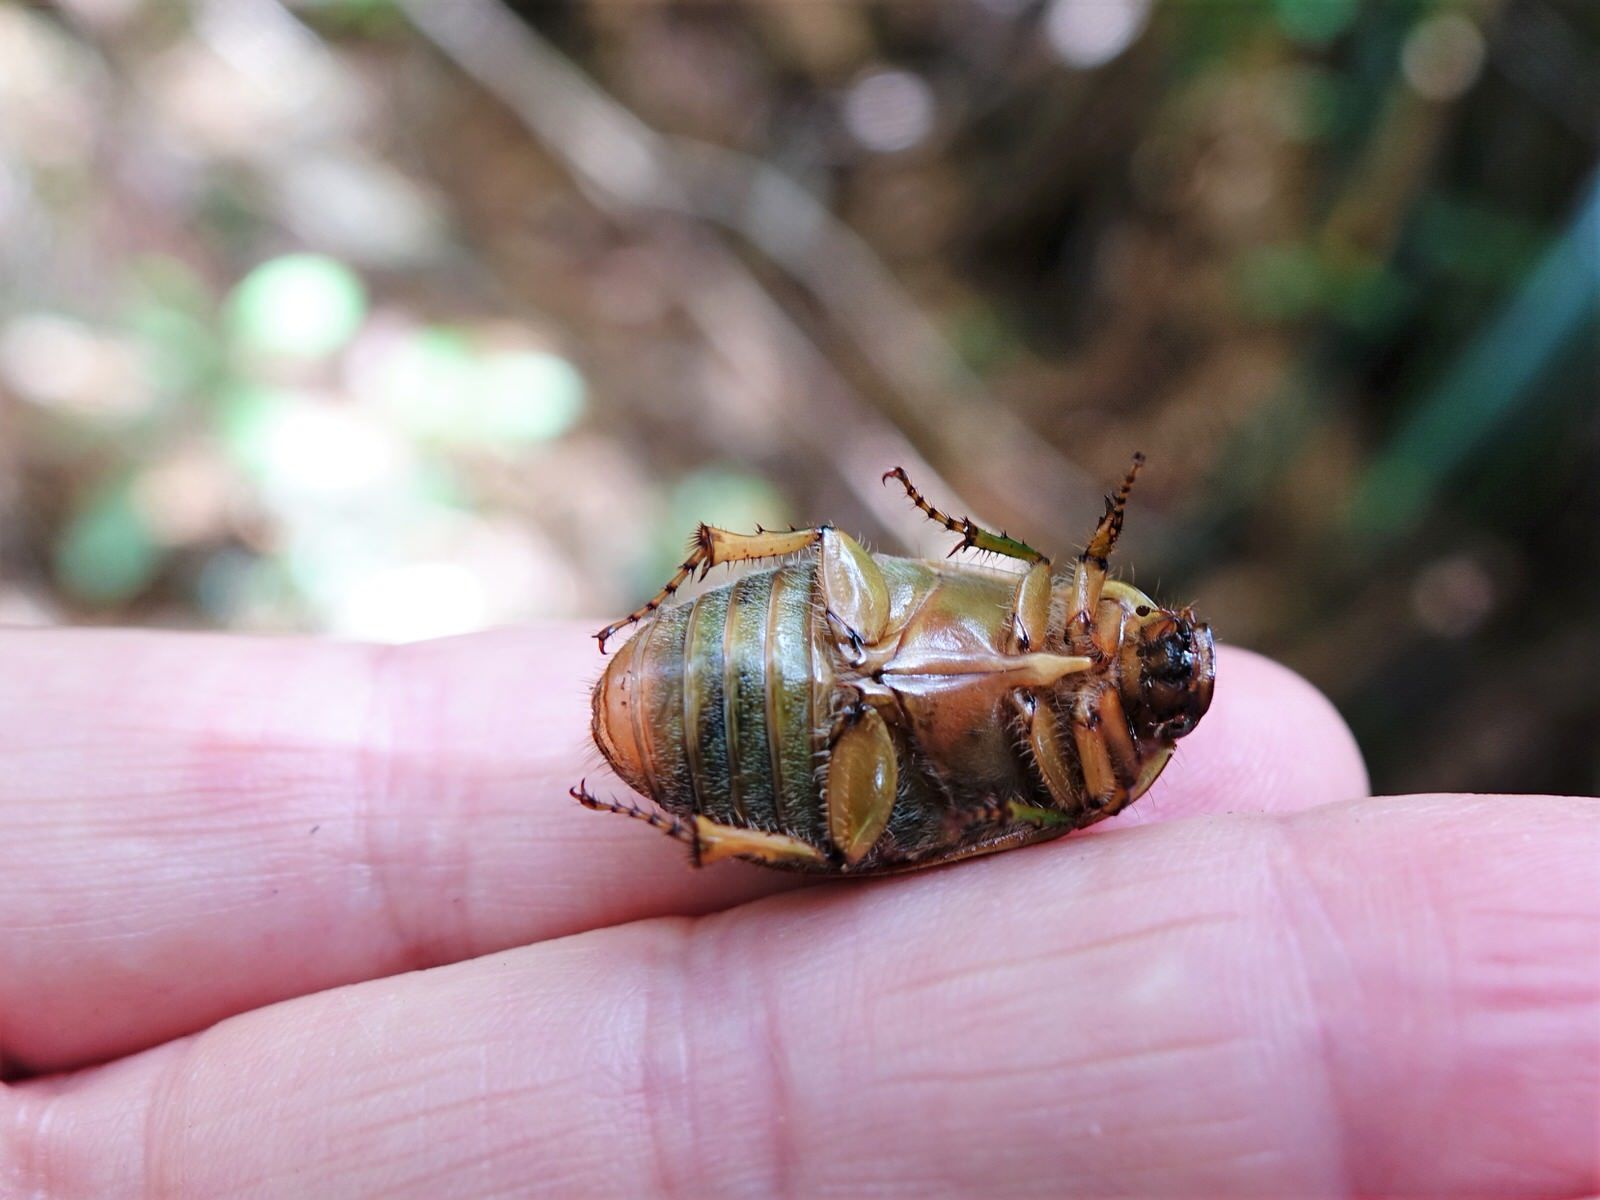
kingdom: Animalia
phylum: Arthropoda
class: Insecta
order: Coleoptera
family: Scarabaeidae
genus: Stethaspis
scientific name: Stethaspis longicornis
